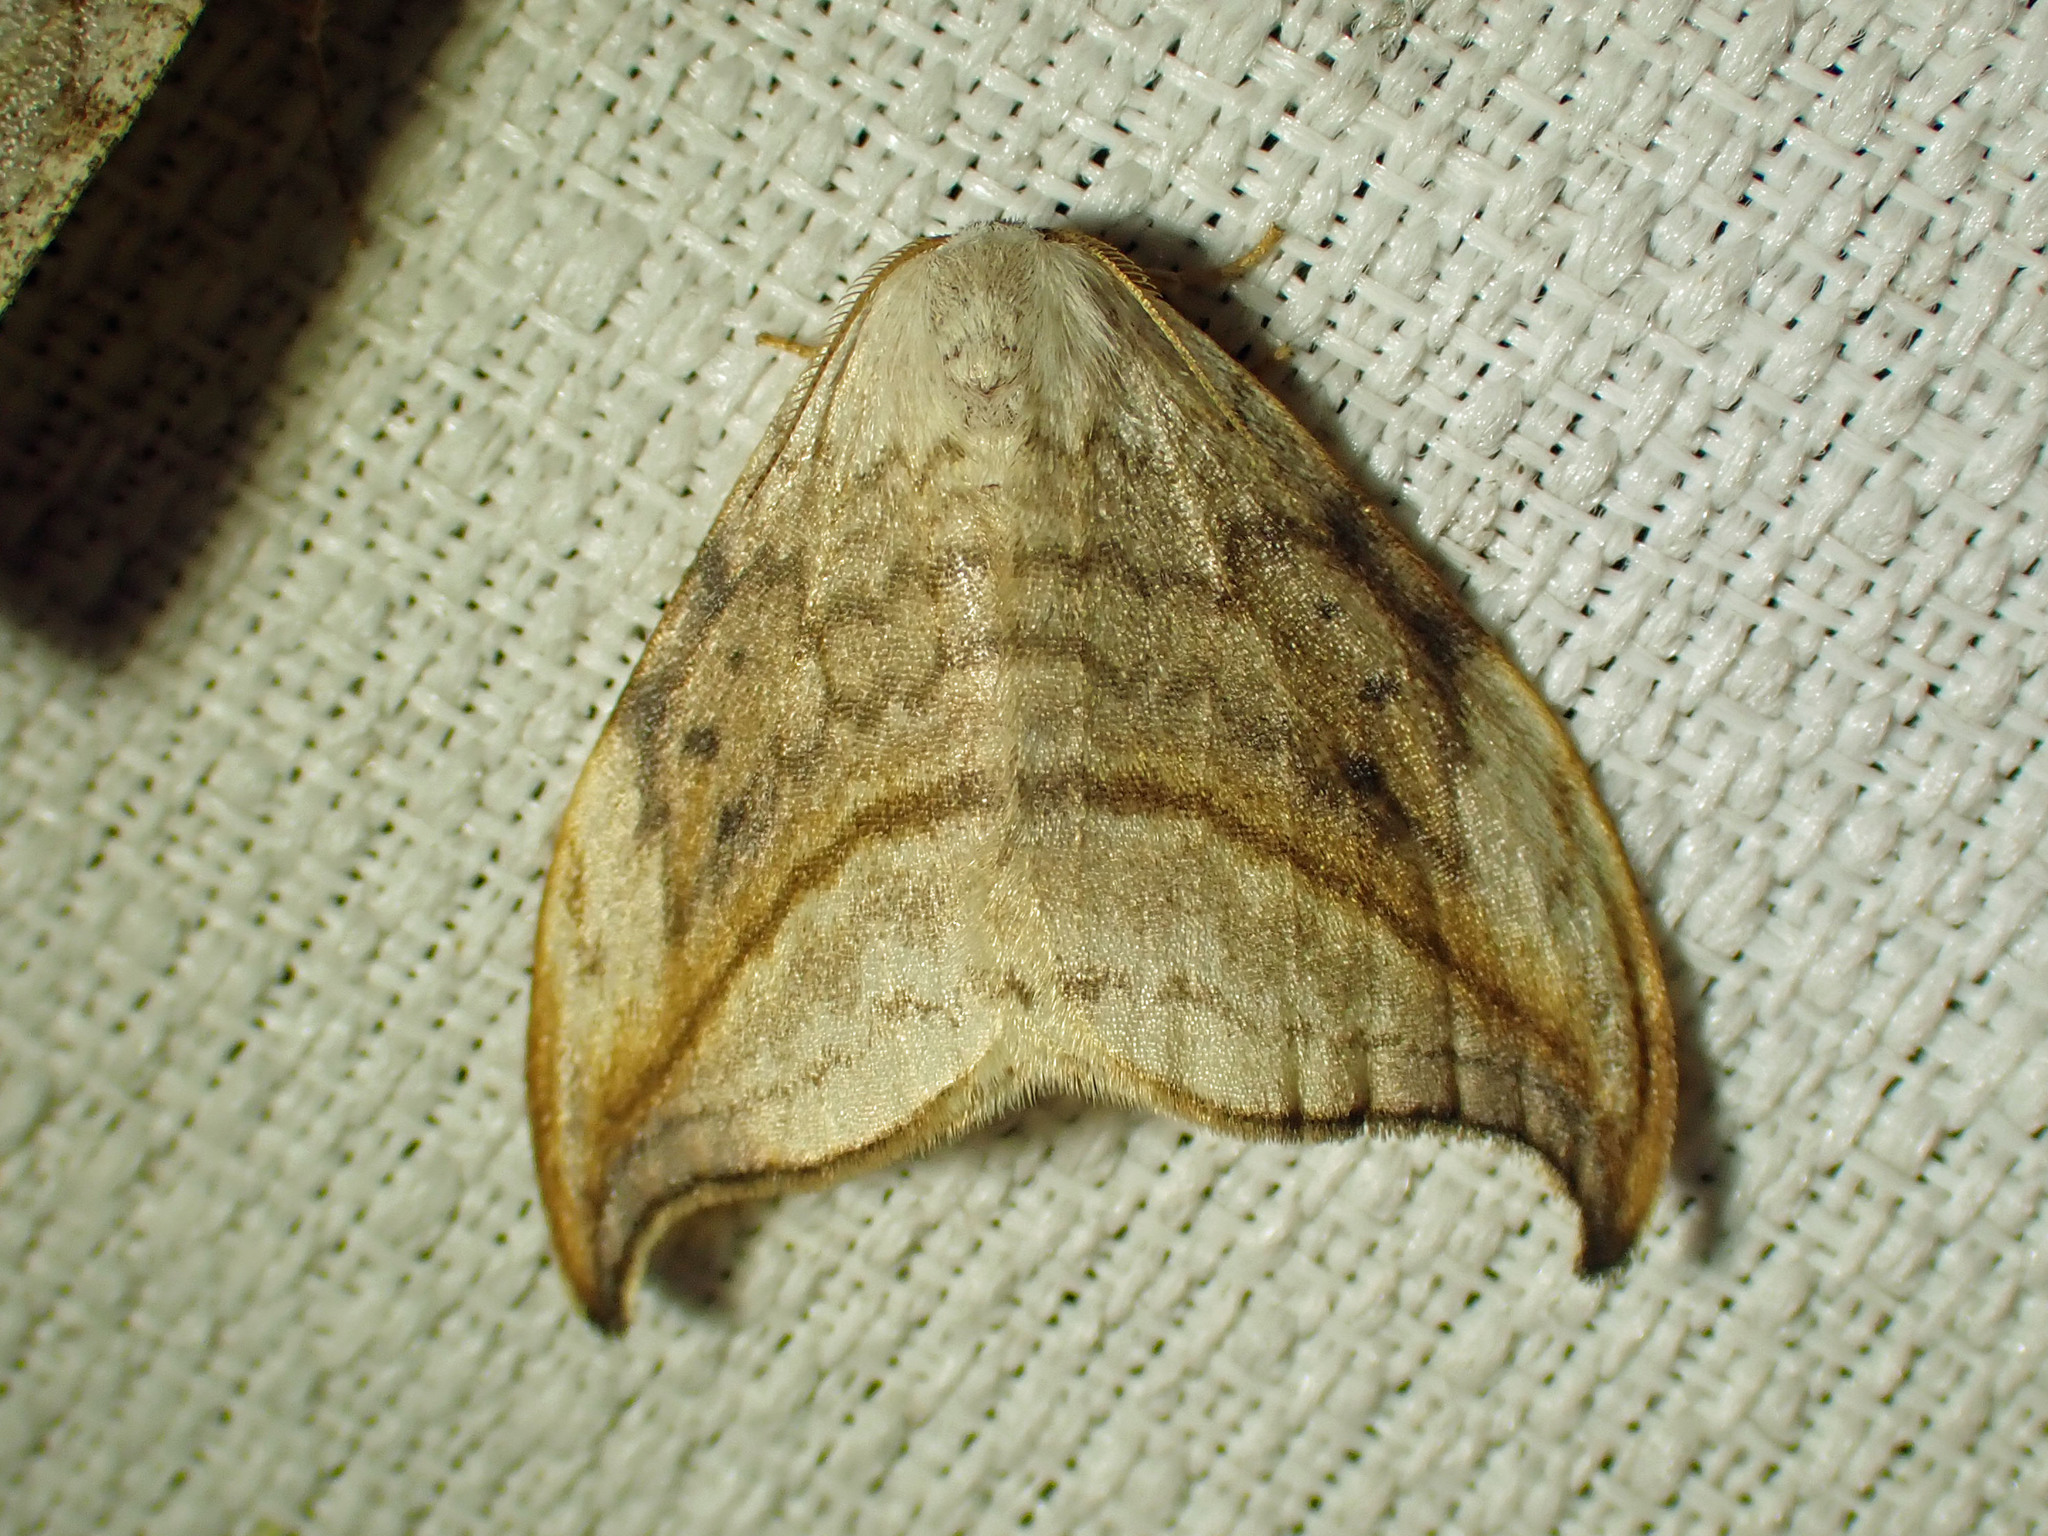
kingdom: Animalia
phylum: Arthropoda
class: Insecta
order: Lepidoptera
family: Drepanidae
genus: Drepana
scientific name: Drepana arcuata
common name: Arched hooktip moth
